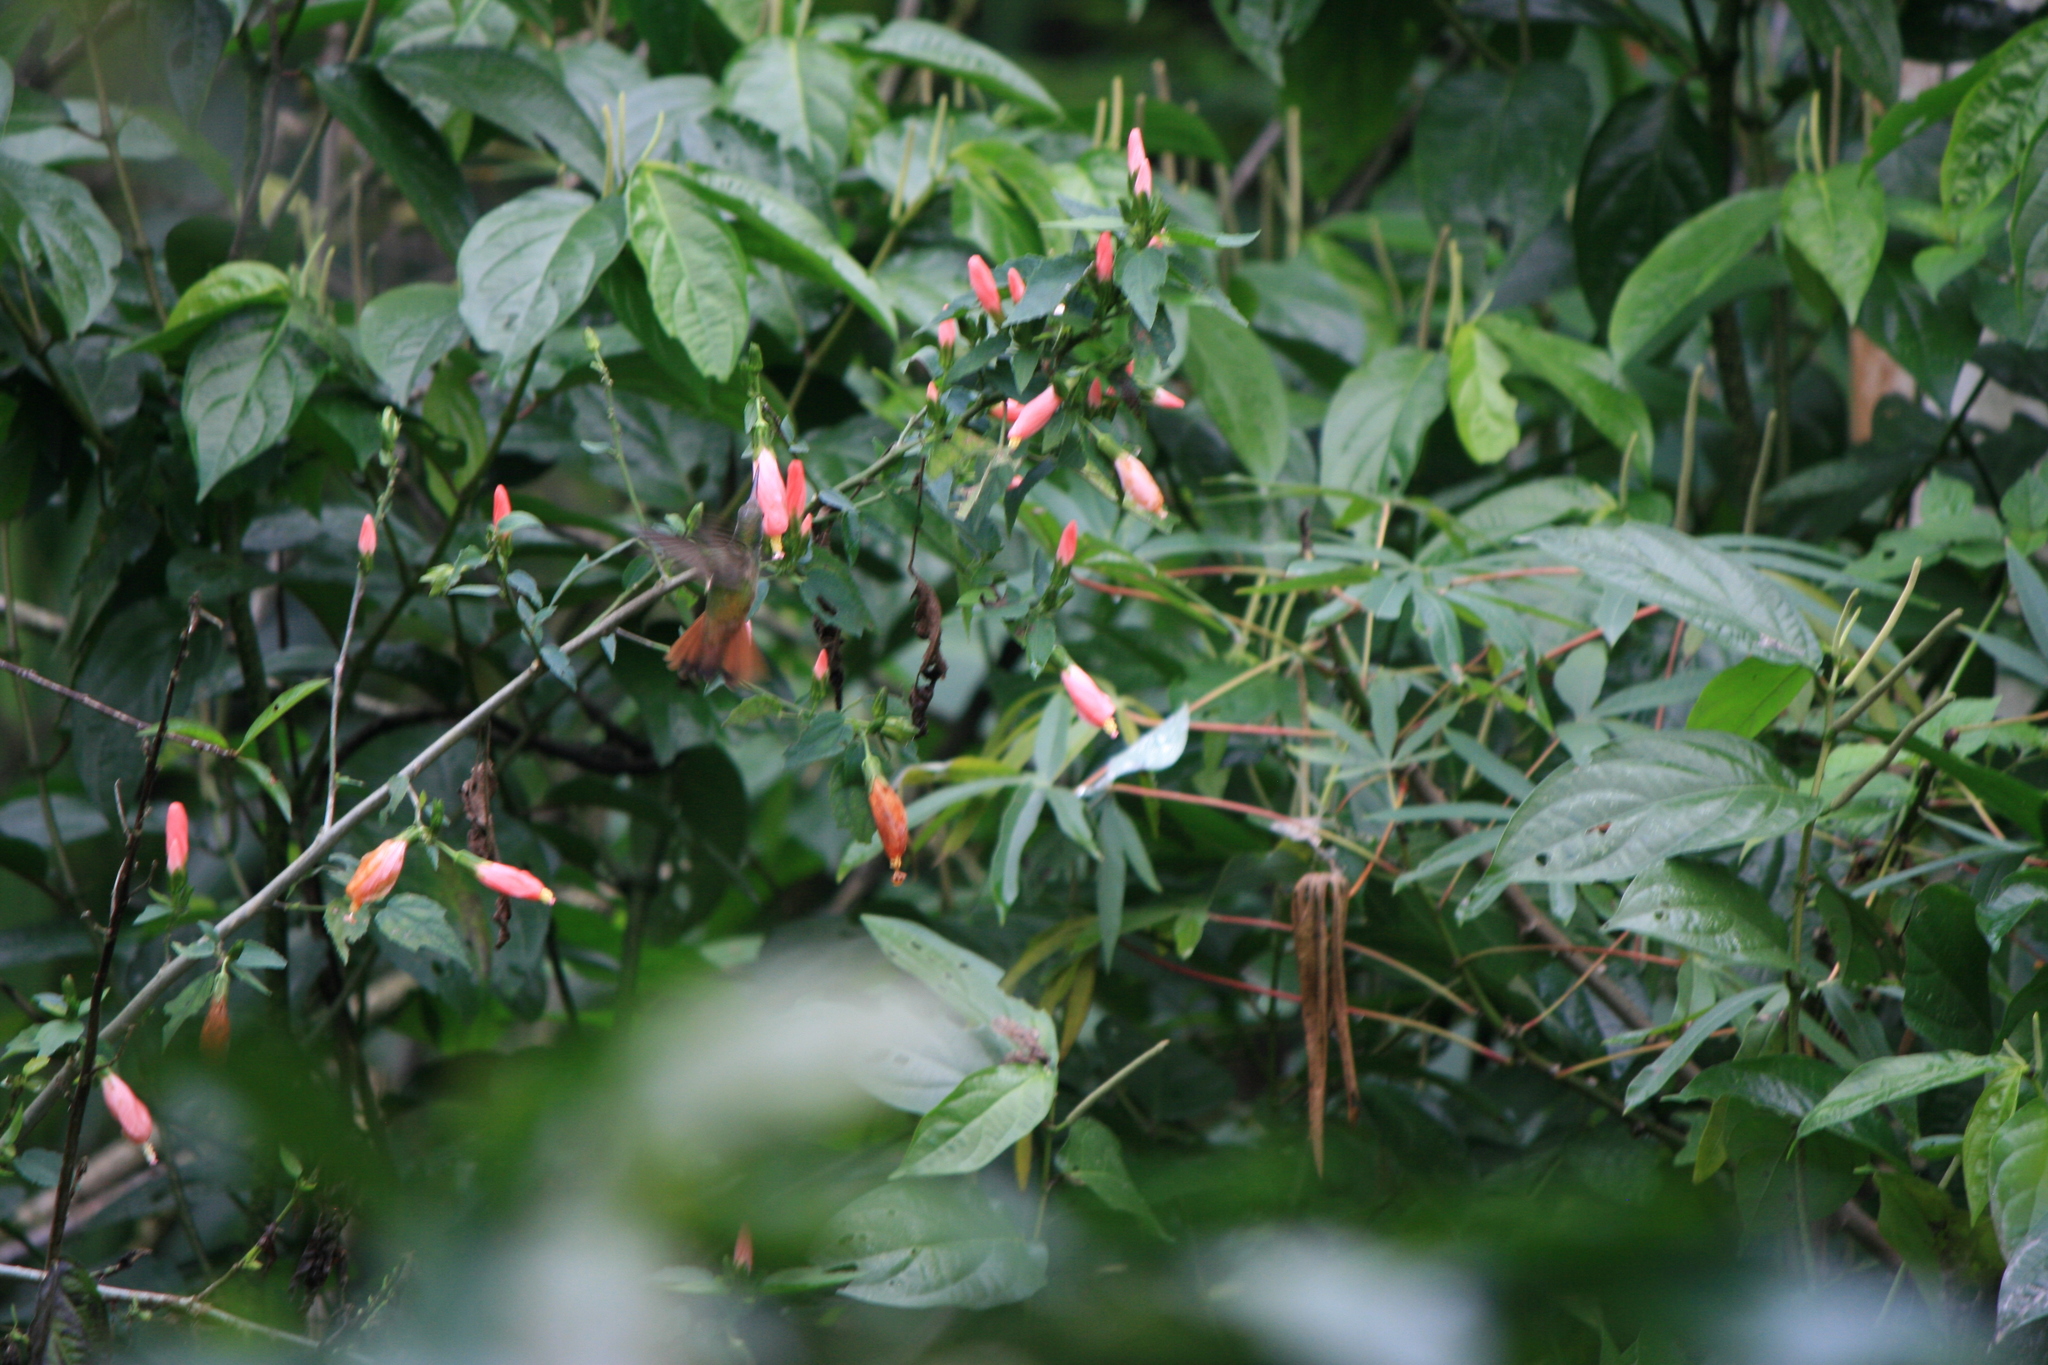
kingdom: Animalia
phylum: Chordata
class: Aves
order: Apodiformes
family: Trochilidae
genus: Amazilia
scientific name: Amazilia yucatanensis
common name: Buff-bellied hummingbird
